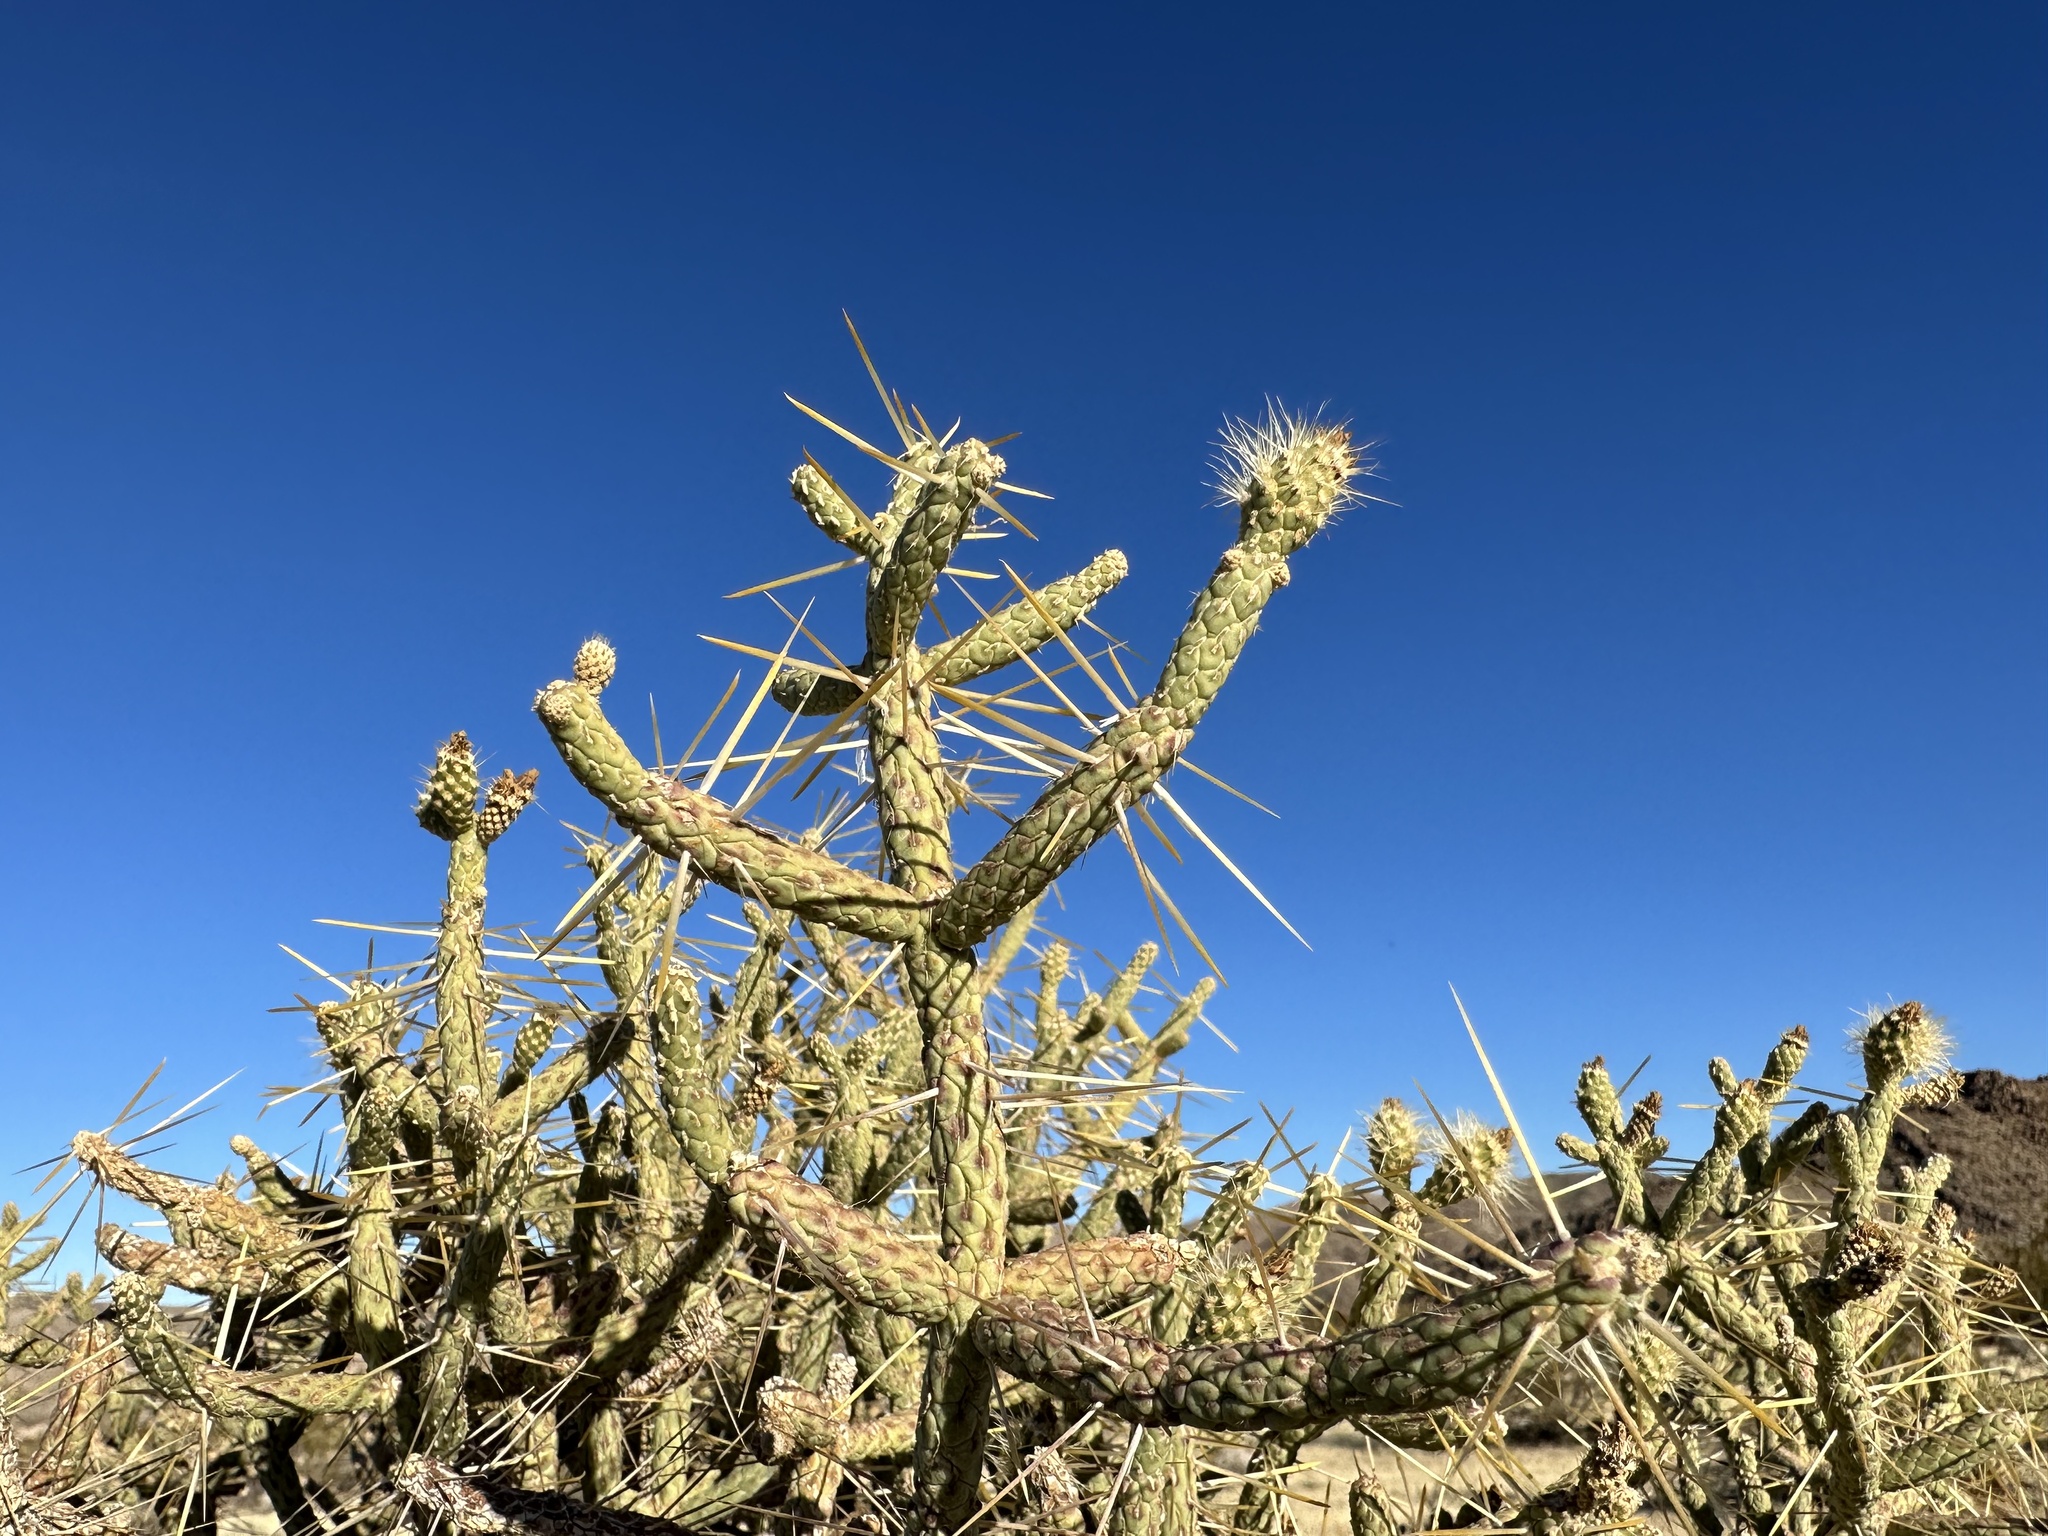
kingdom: Plantae
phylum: Tracheophyta
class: Magnoliopsida
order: Caryophyllales
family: Cactaceae
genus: Cylindropuntia
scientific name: Cylindropuntia ramosissima
